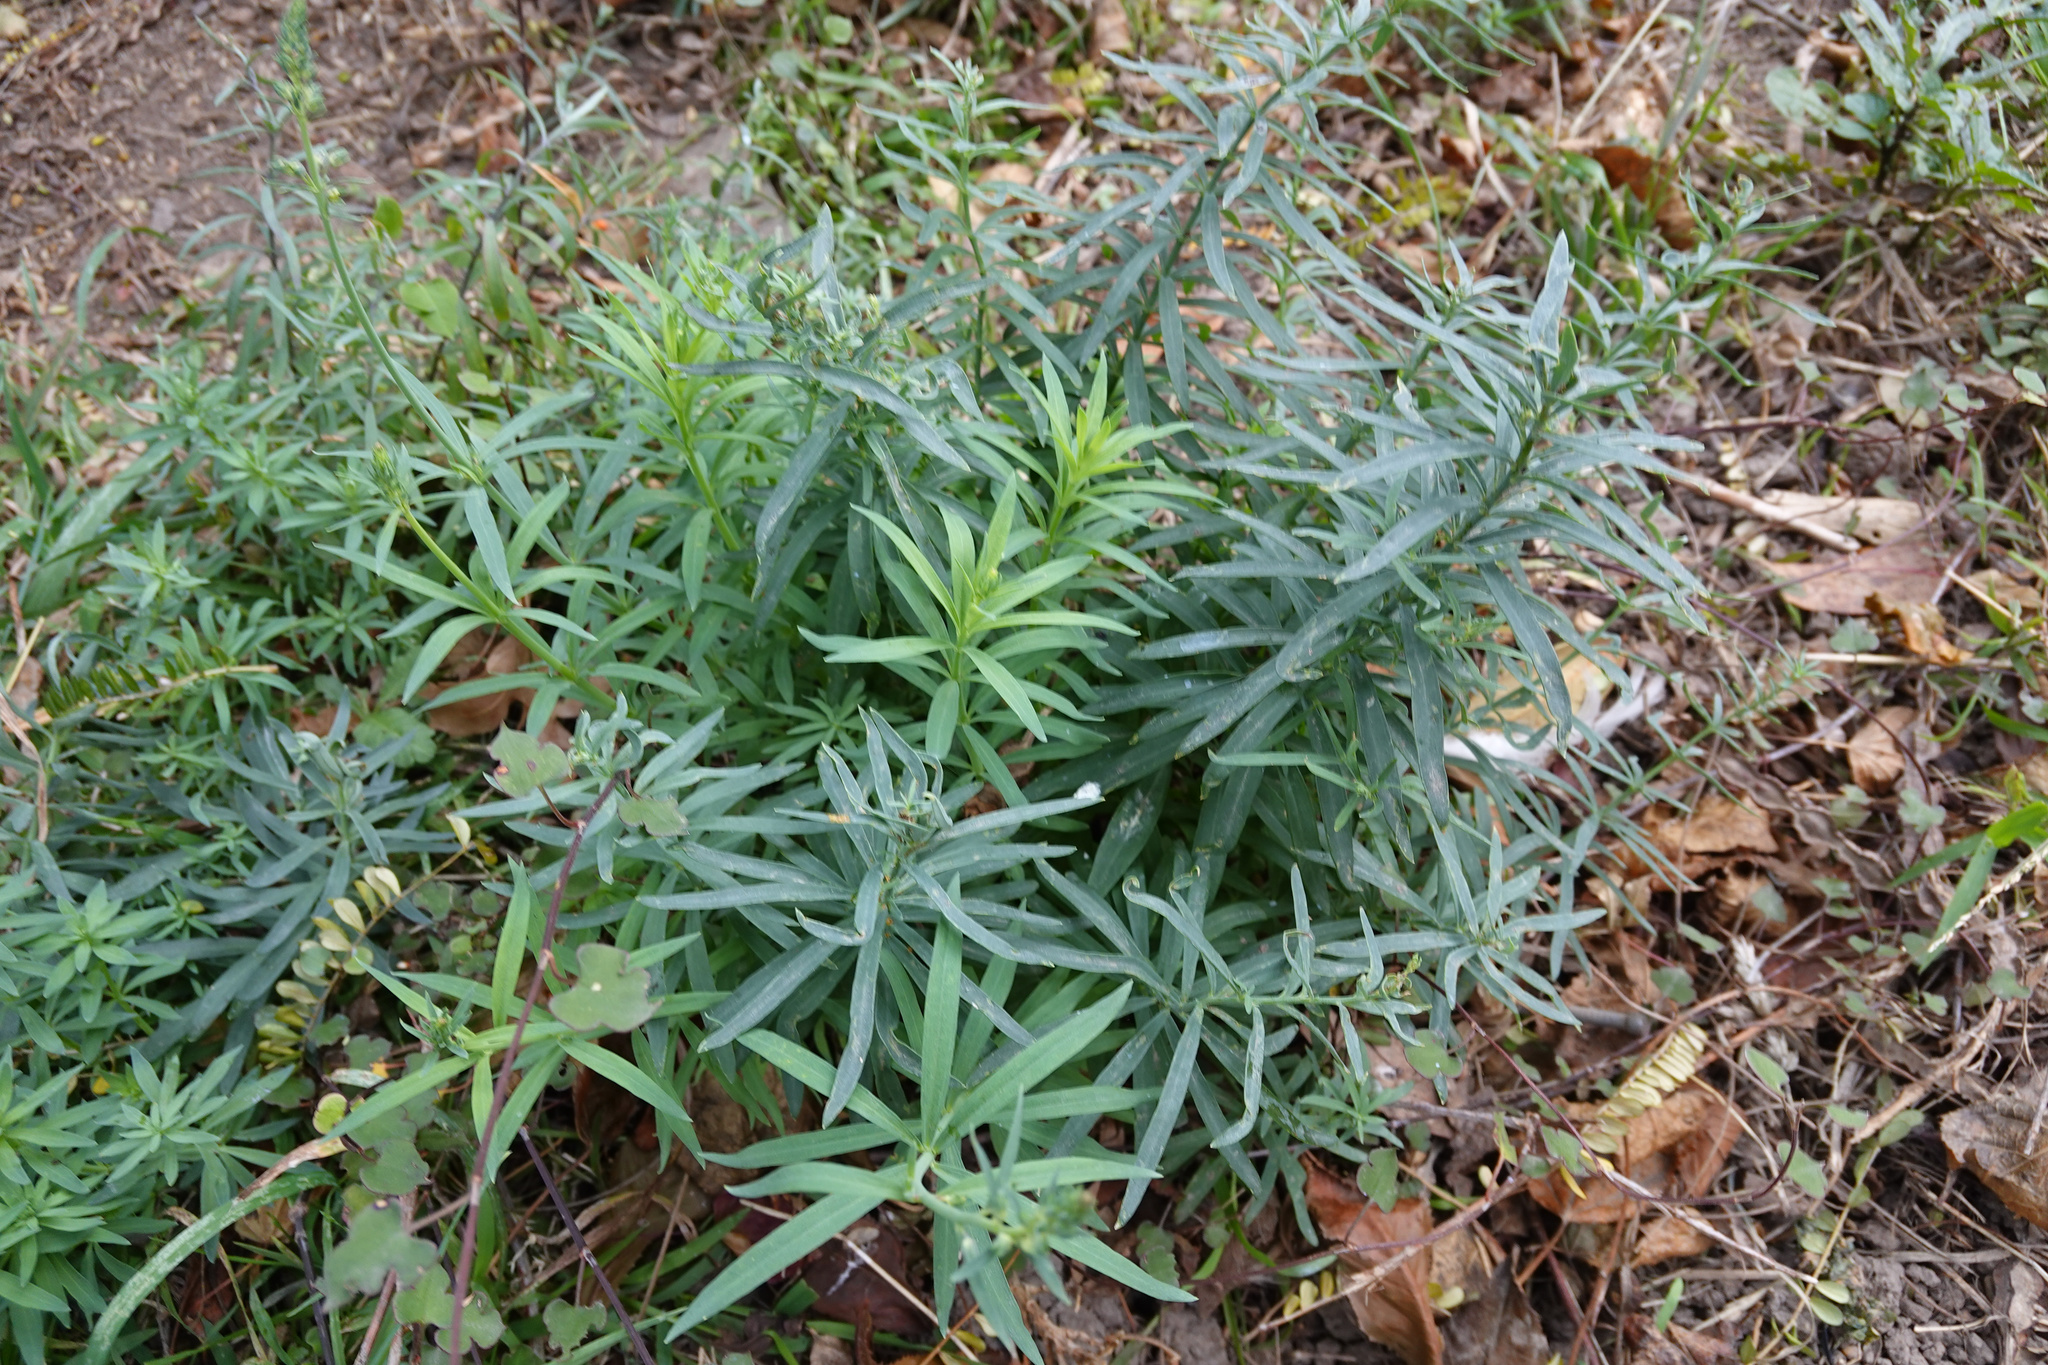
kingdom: Plantae
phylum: Tracheophyta
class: Magnoliopsida
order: Lamiales
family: Plantaginaceae
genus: Linaria
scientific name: Linaria purpurea
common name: Purple toadflax
